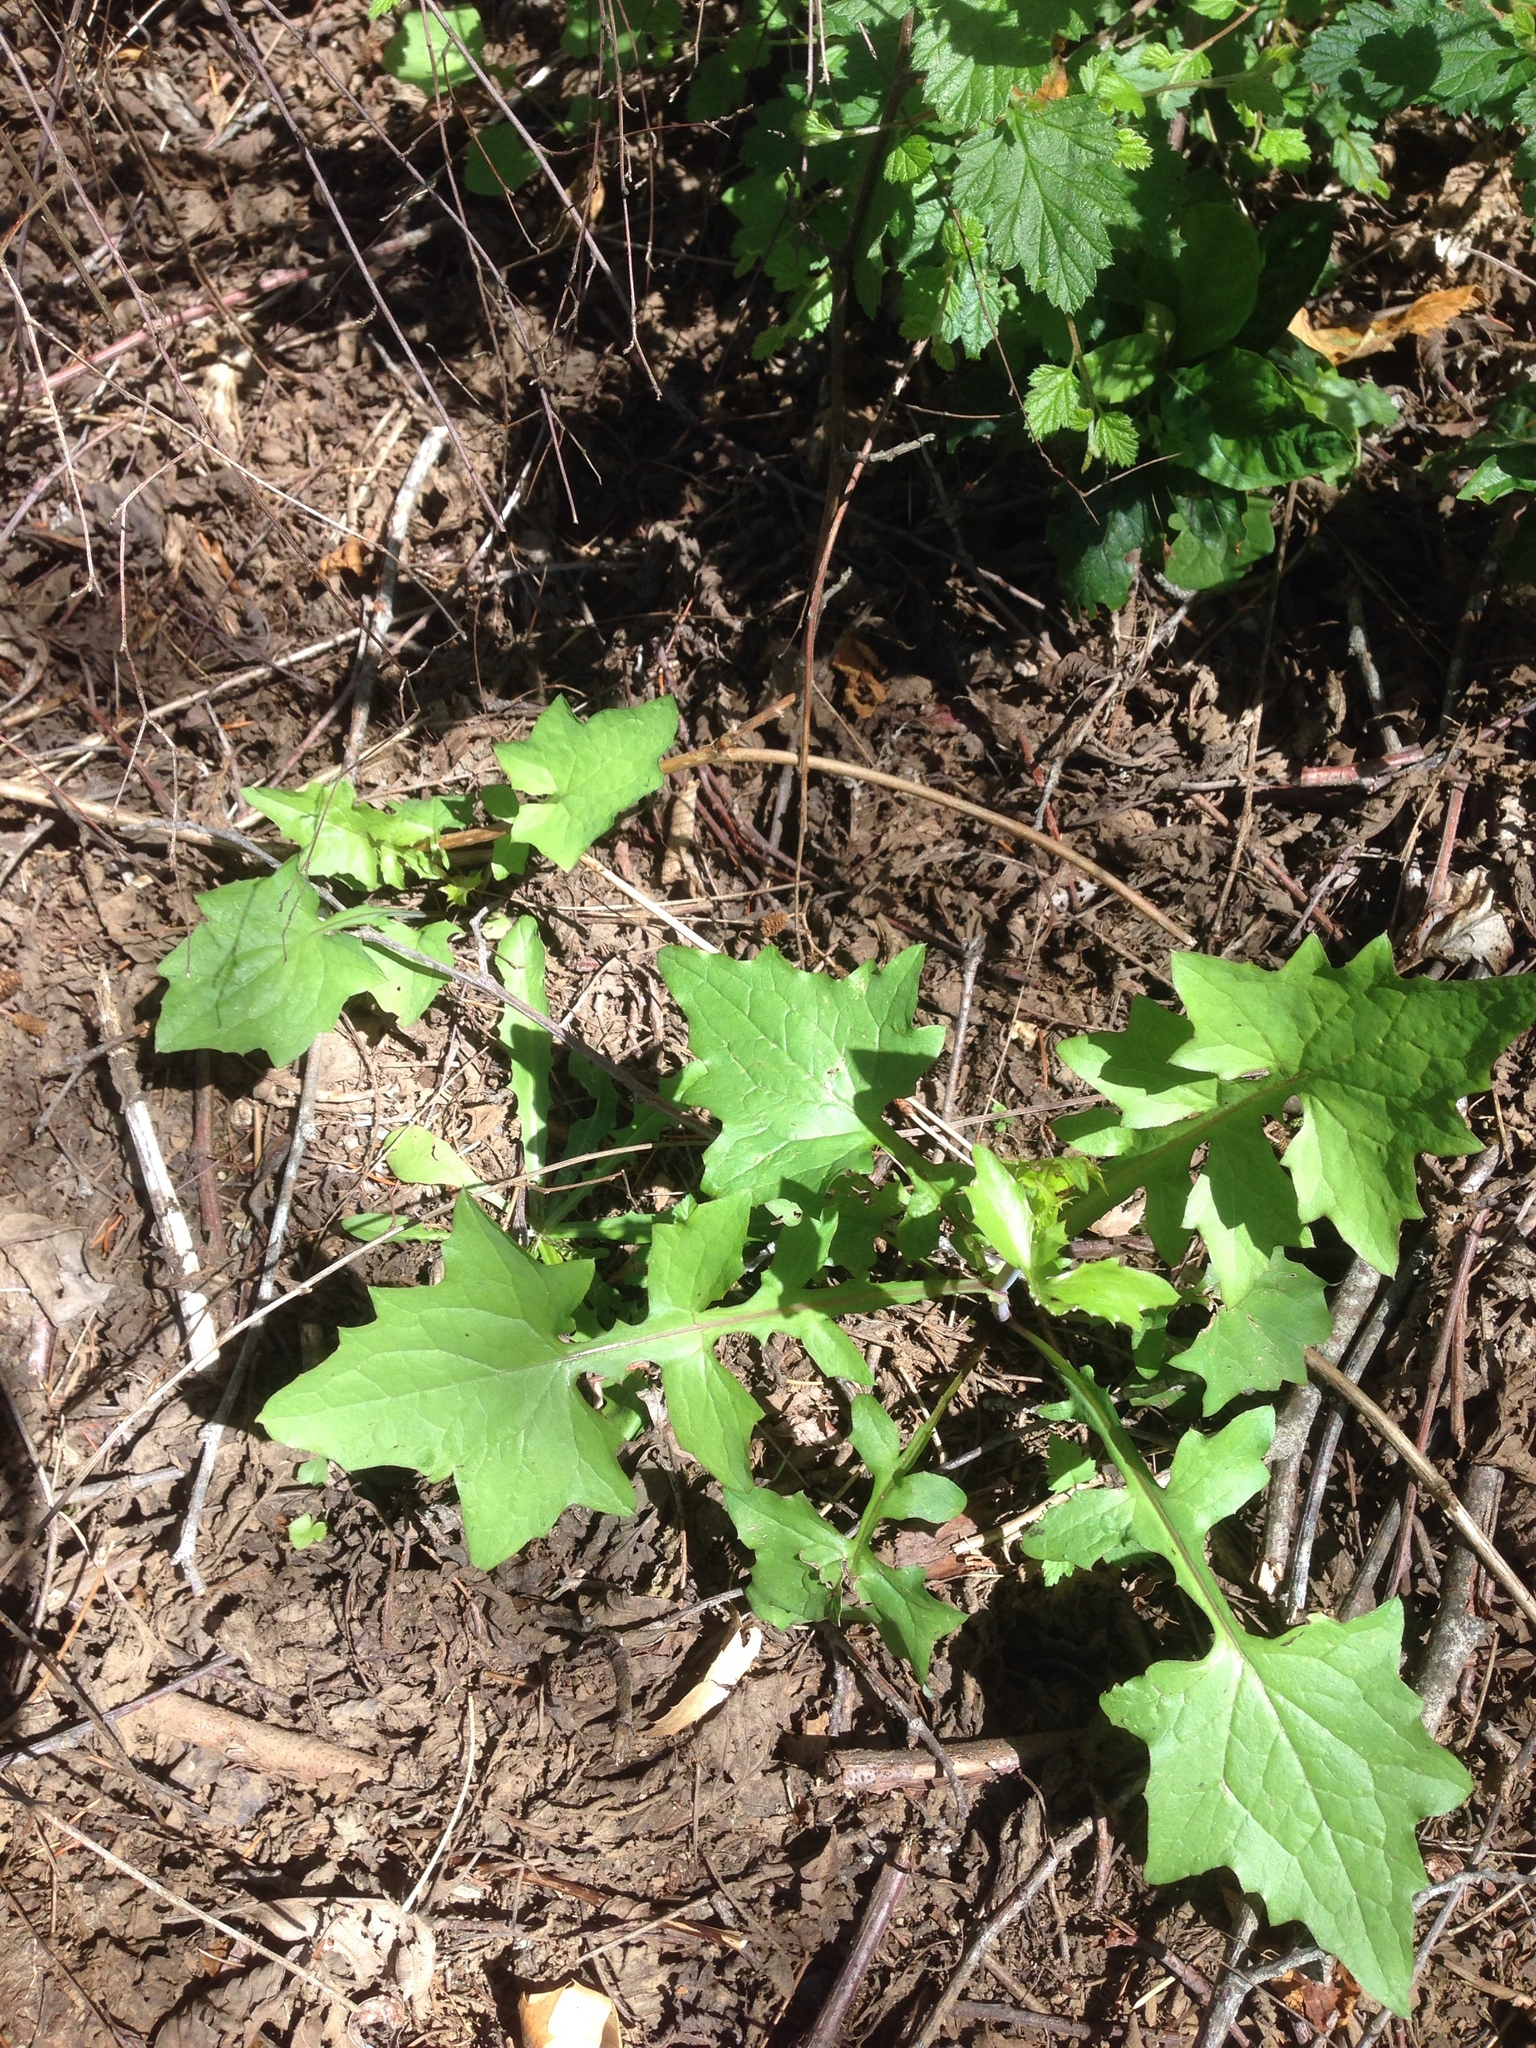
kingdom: Plantae
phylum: Tracheophyta
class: Magnoliopsida
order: Asterales
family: Asteraceae
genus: Mycelis
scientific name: Mycelis muralis
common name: Wall lettuce
